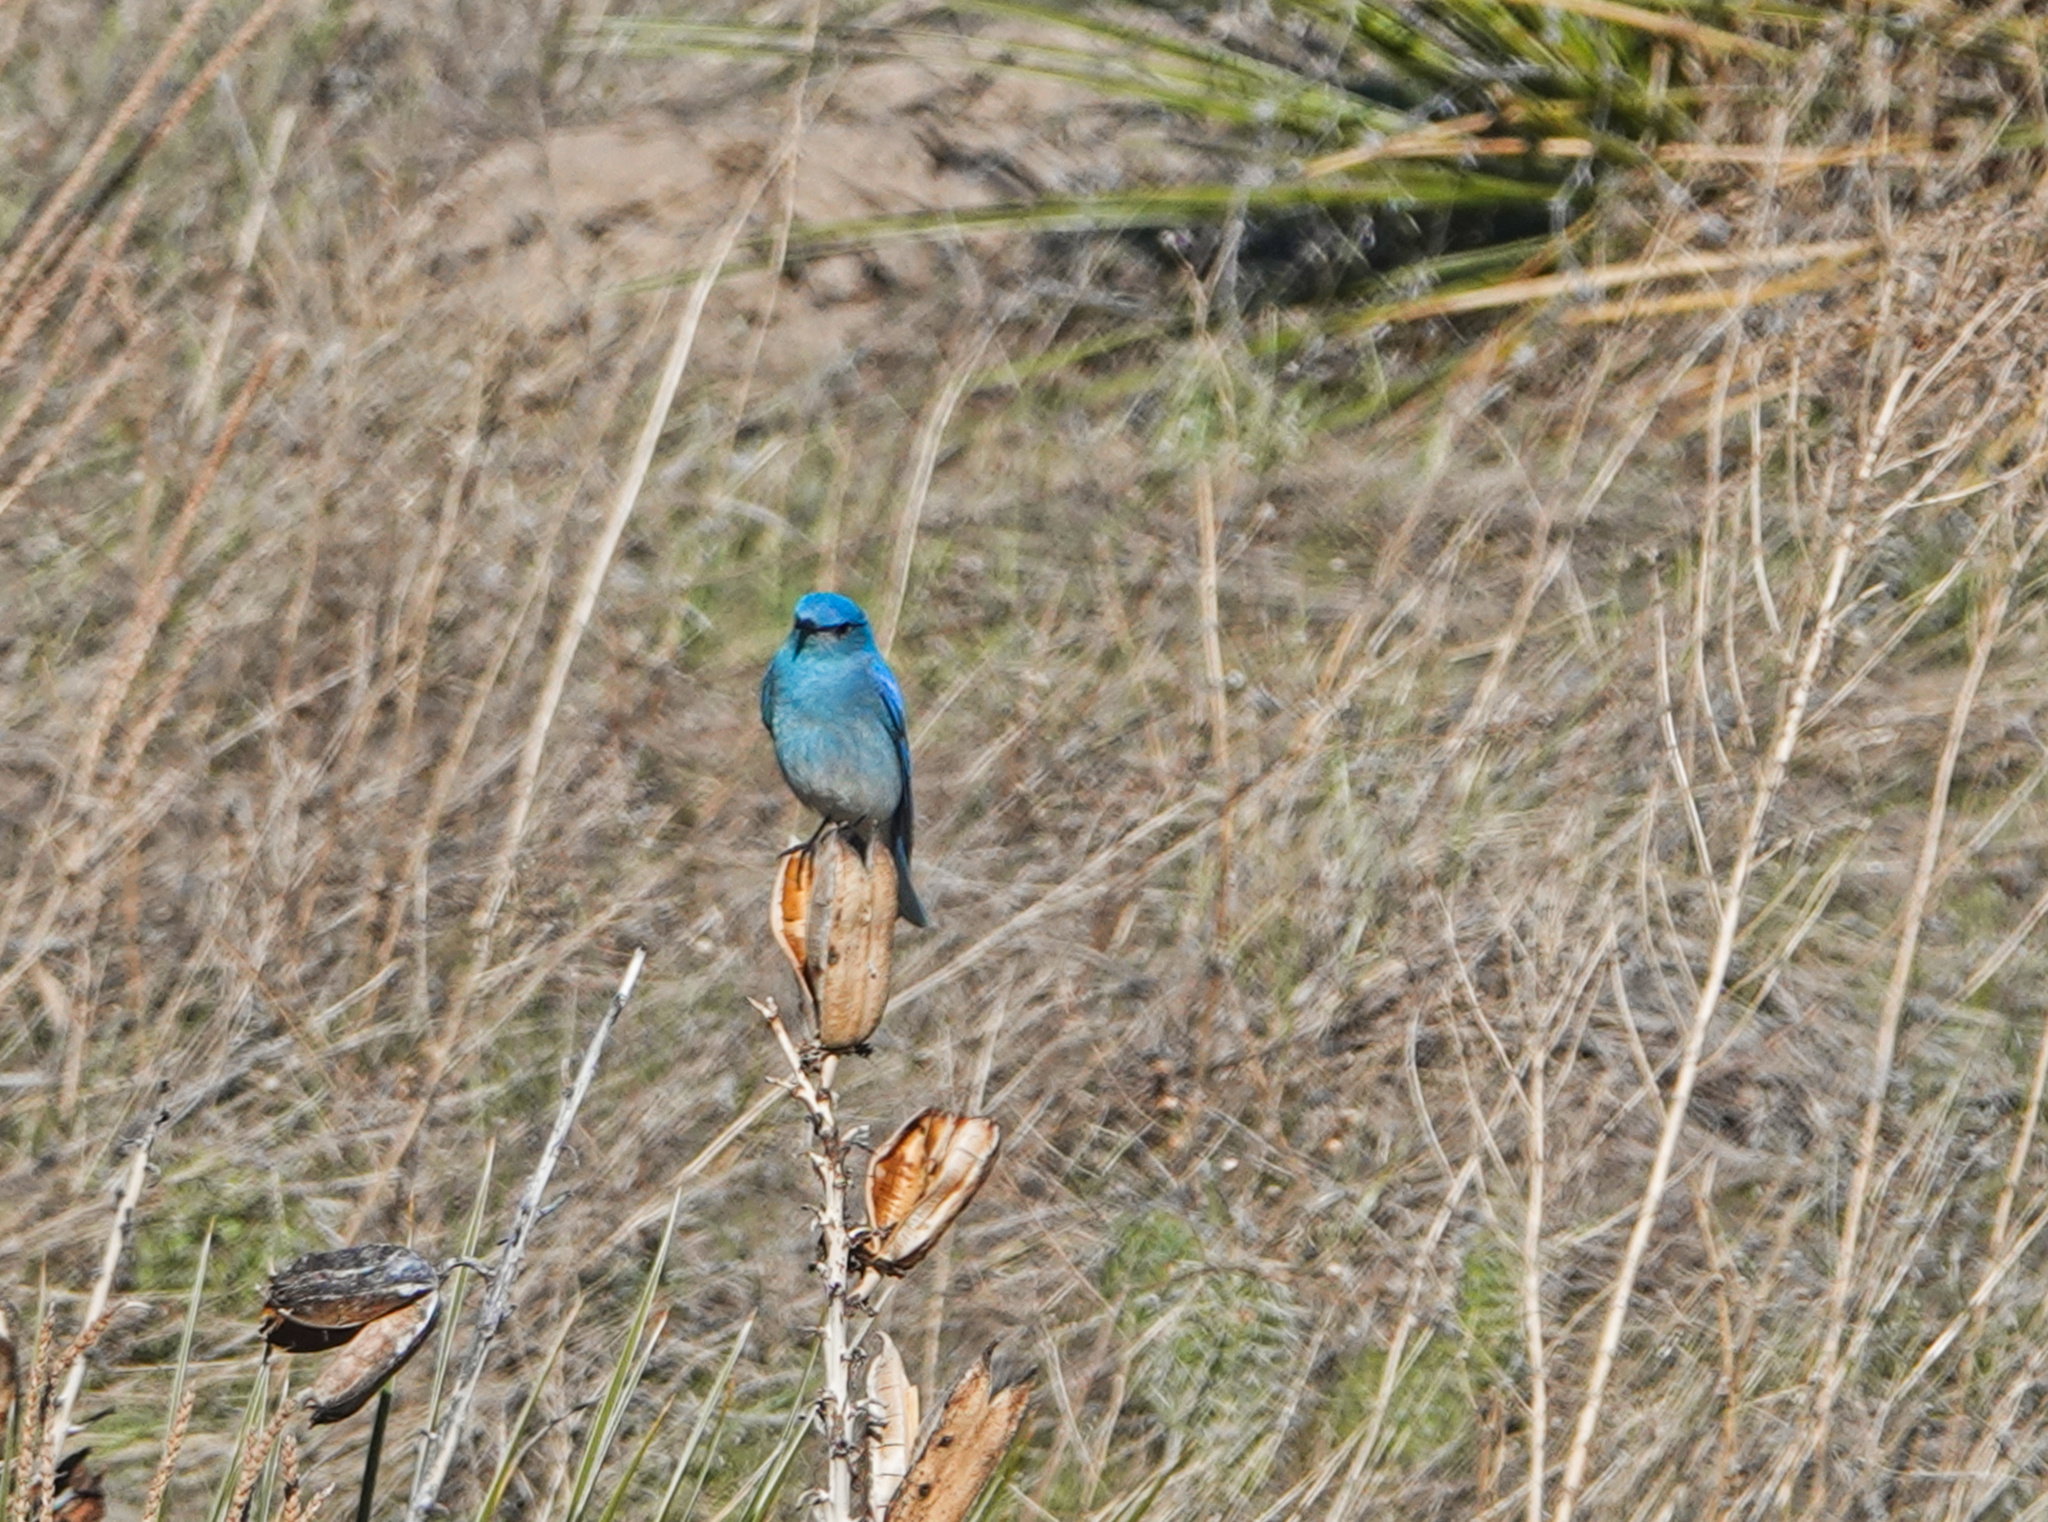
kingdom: Animalia
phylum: Chordata
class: Aves
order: Passeriformes
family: Turdidae
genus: Sialia
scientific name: Sialia currucoides
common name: Mountain bluebird
